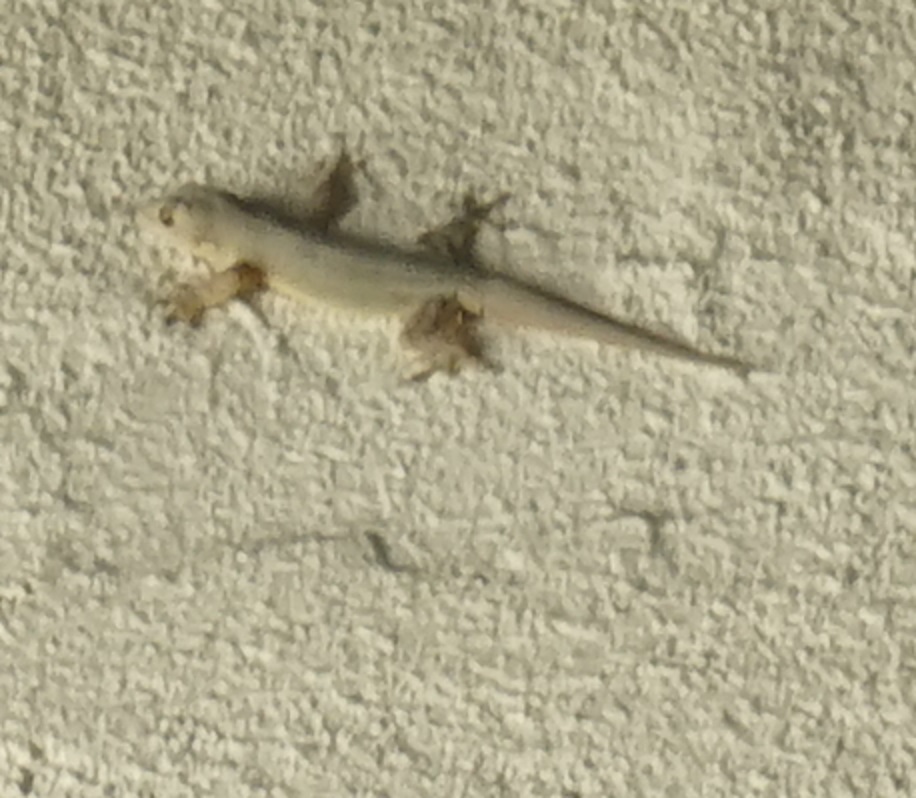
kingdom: Animalia
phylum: Chordata
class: Squamata
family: Gekkonidae
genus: Hemidactylus
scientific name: Hemidactylus platyurus
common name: Flat-tailed house gecko
